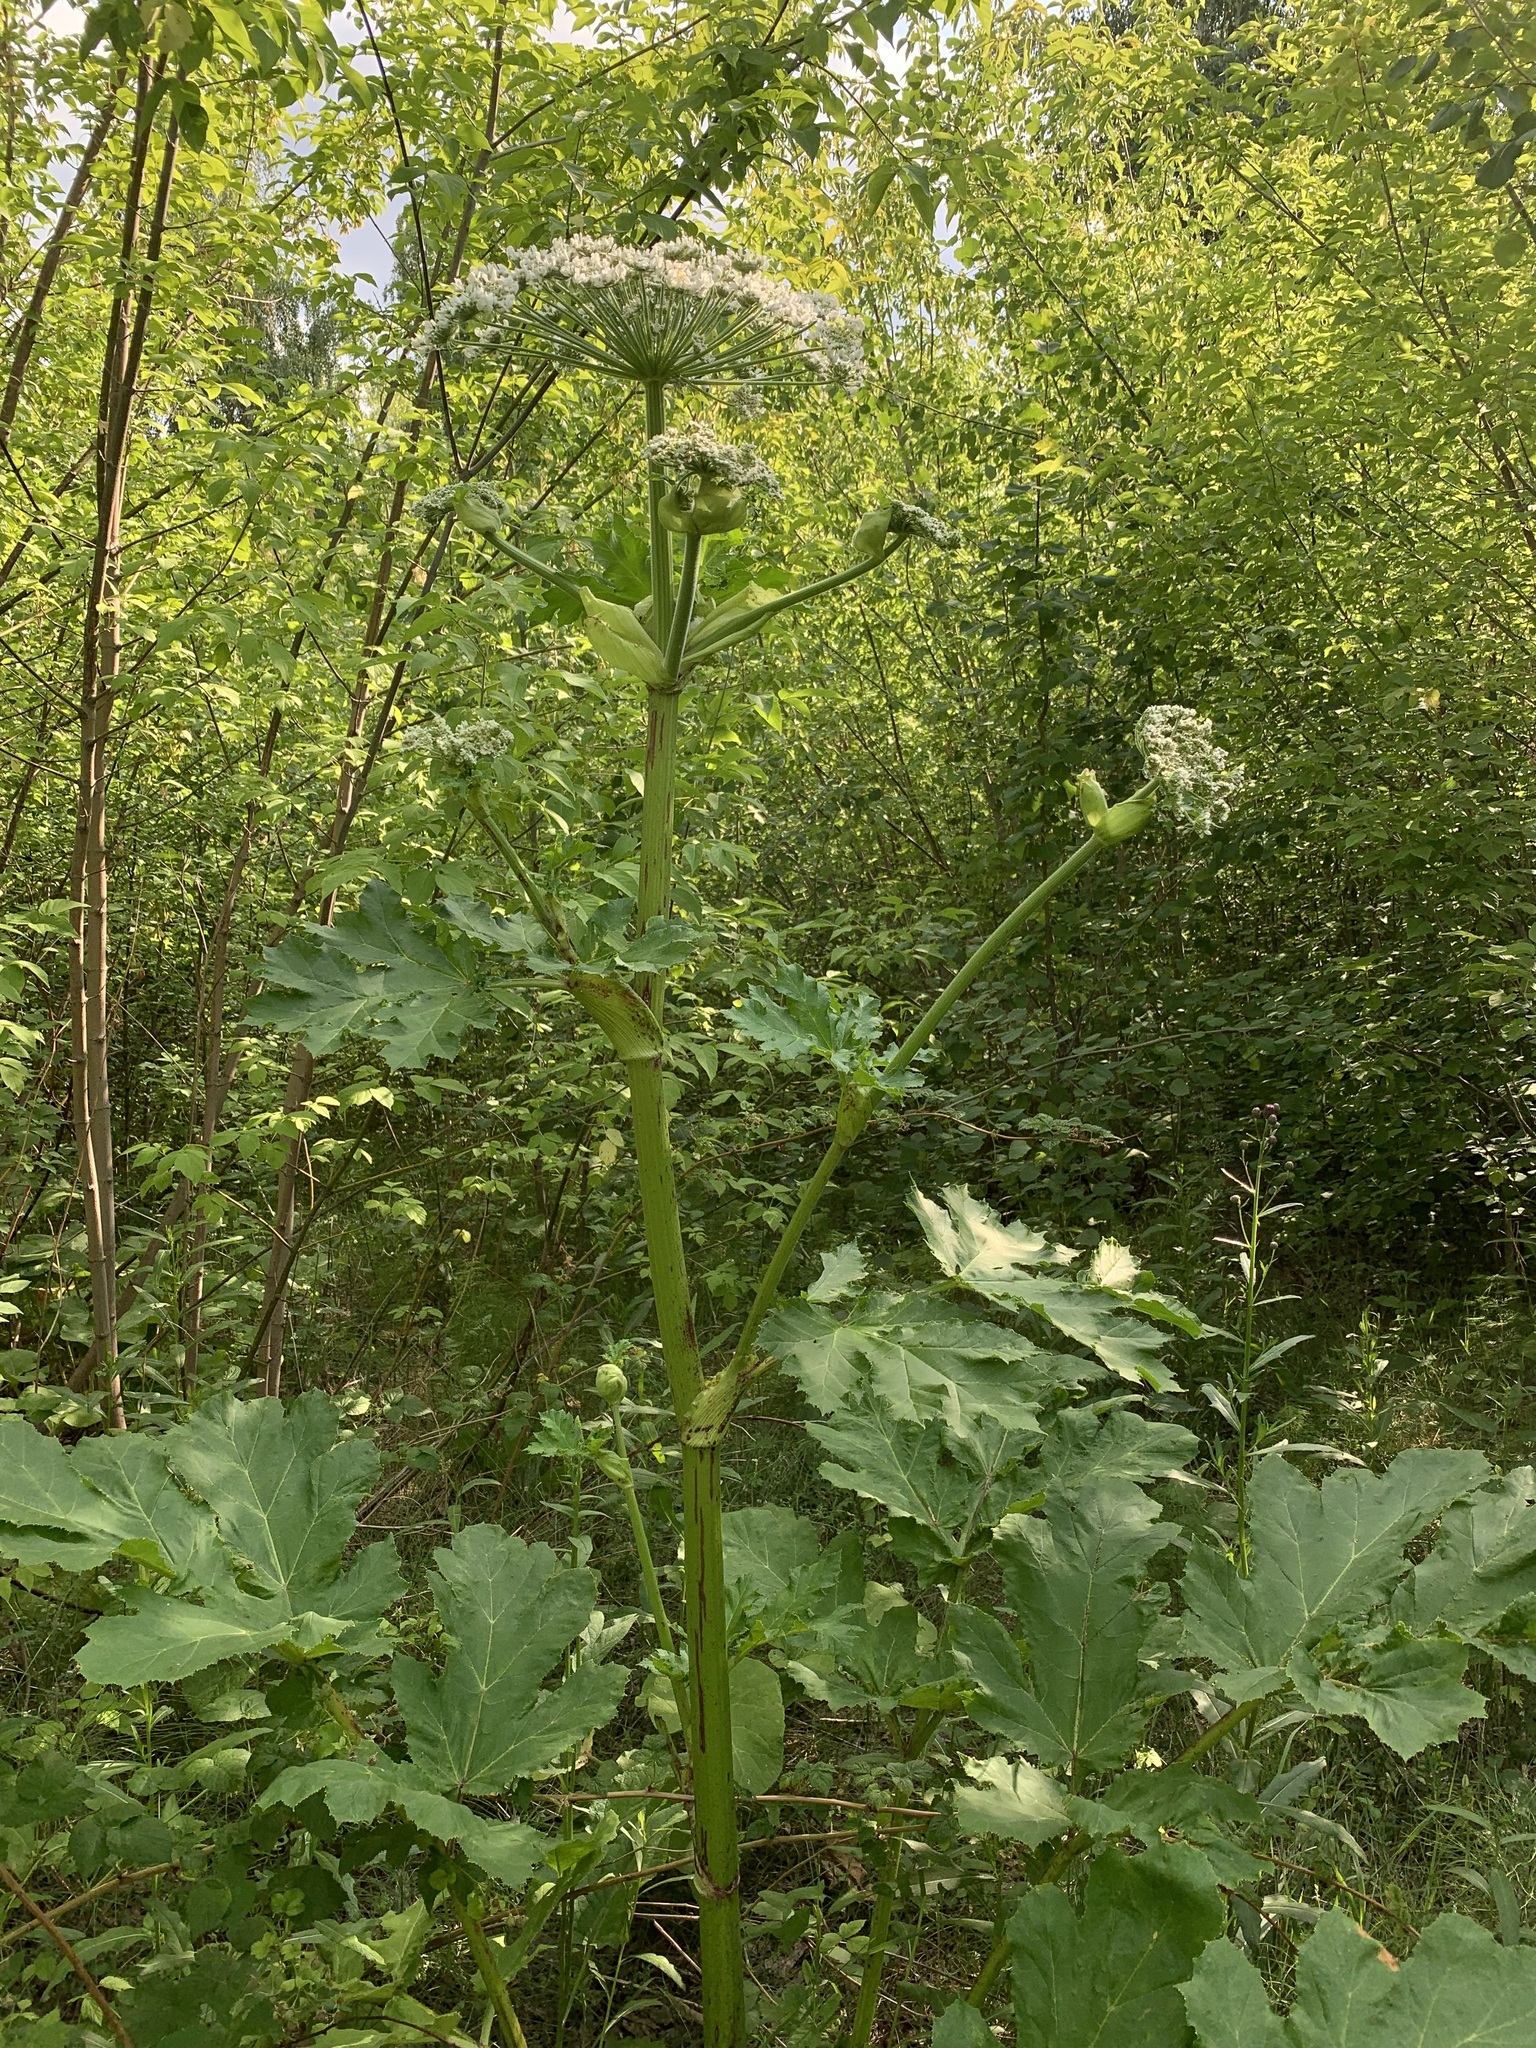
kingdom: Plantae
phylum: Tracheophyta
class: Magnoliopsida
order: Apiales
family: Apiaceae
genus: Heracleum
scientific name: Heracleum sosnowskyi
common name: Sosnowsky's hogweed
